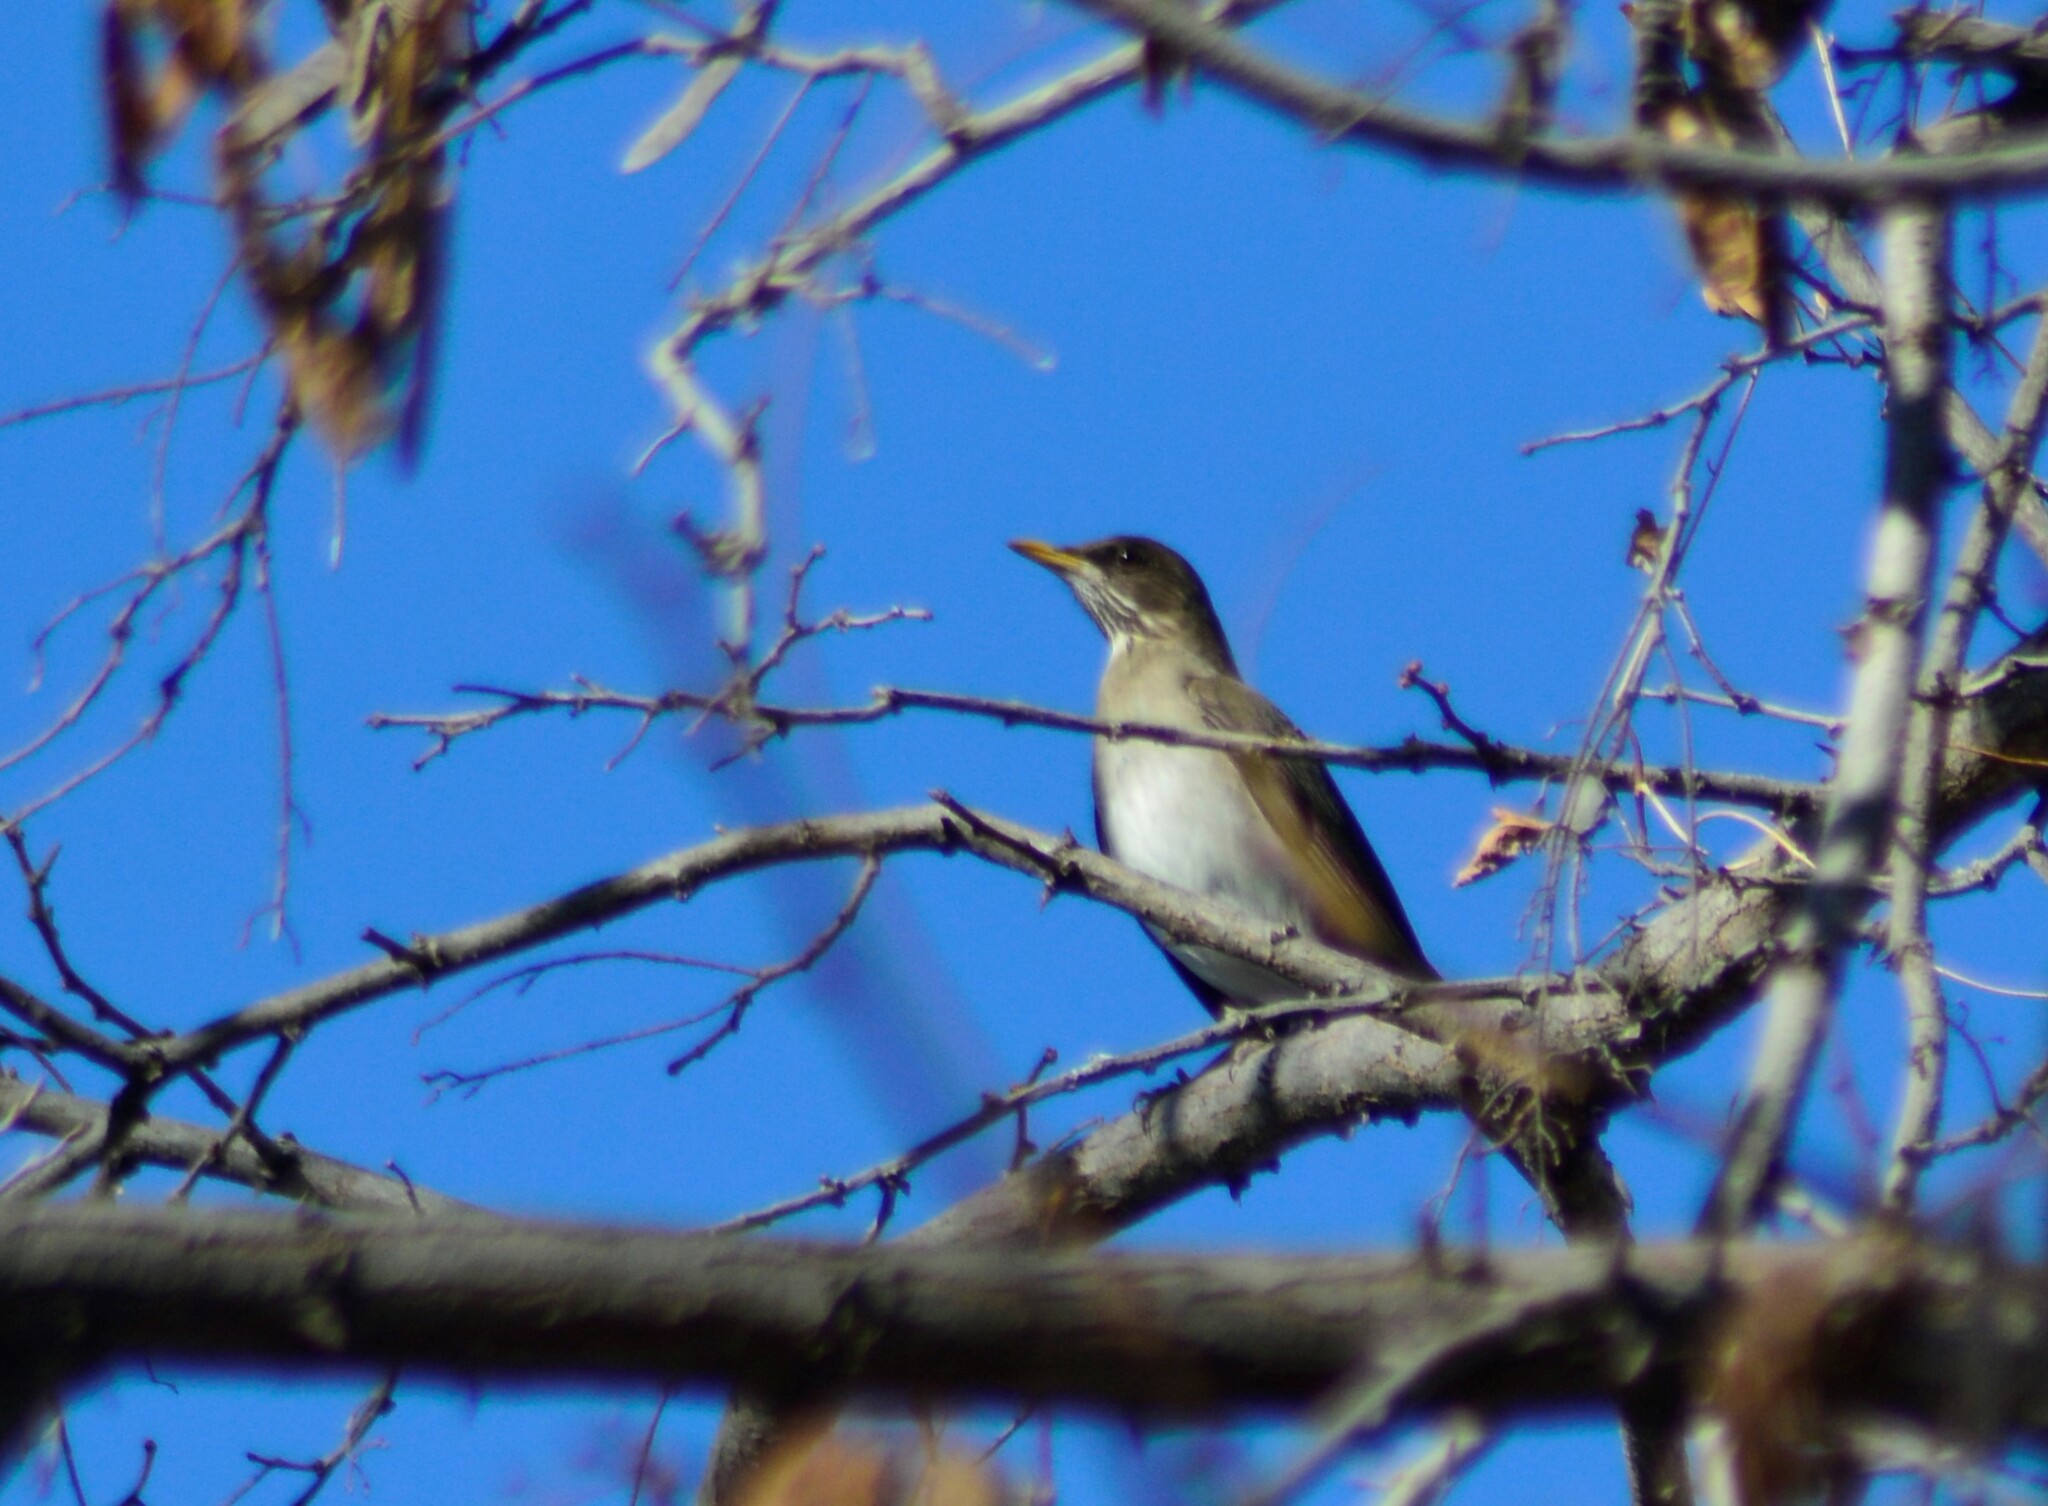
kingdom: Animalia
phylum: Chordata
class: Aves
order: Passeriformes
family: Turdidae
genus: Turdus
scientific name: Turdus amaurochalinus
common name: Creamy-bellied thrush
